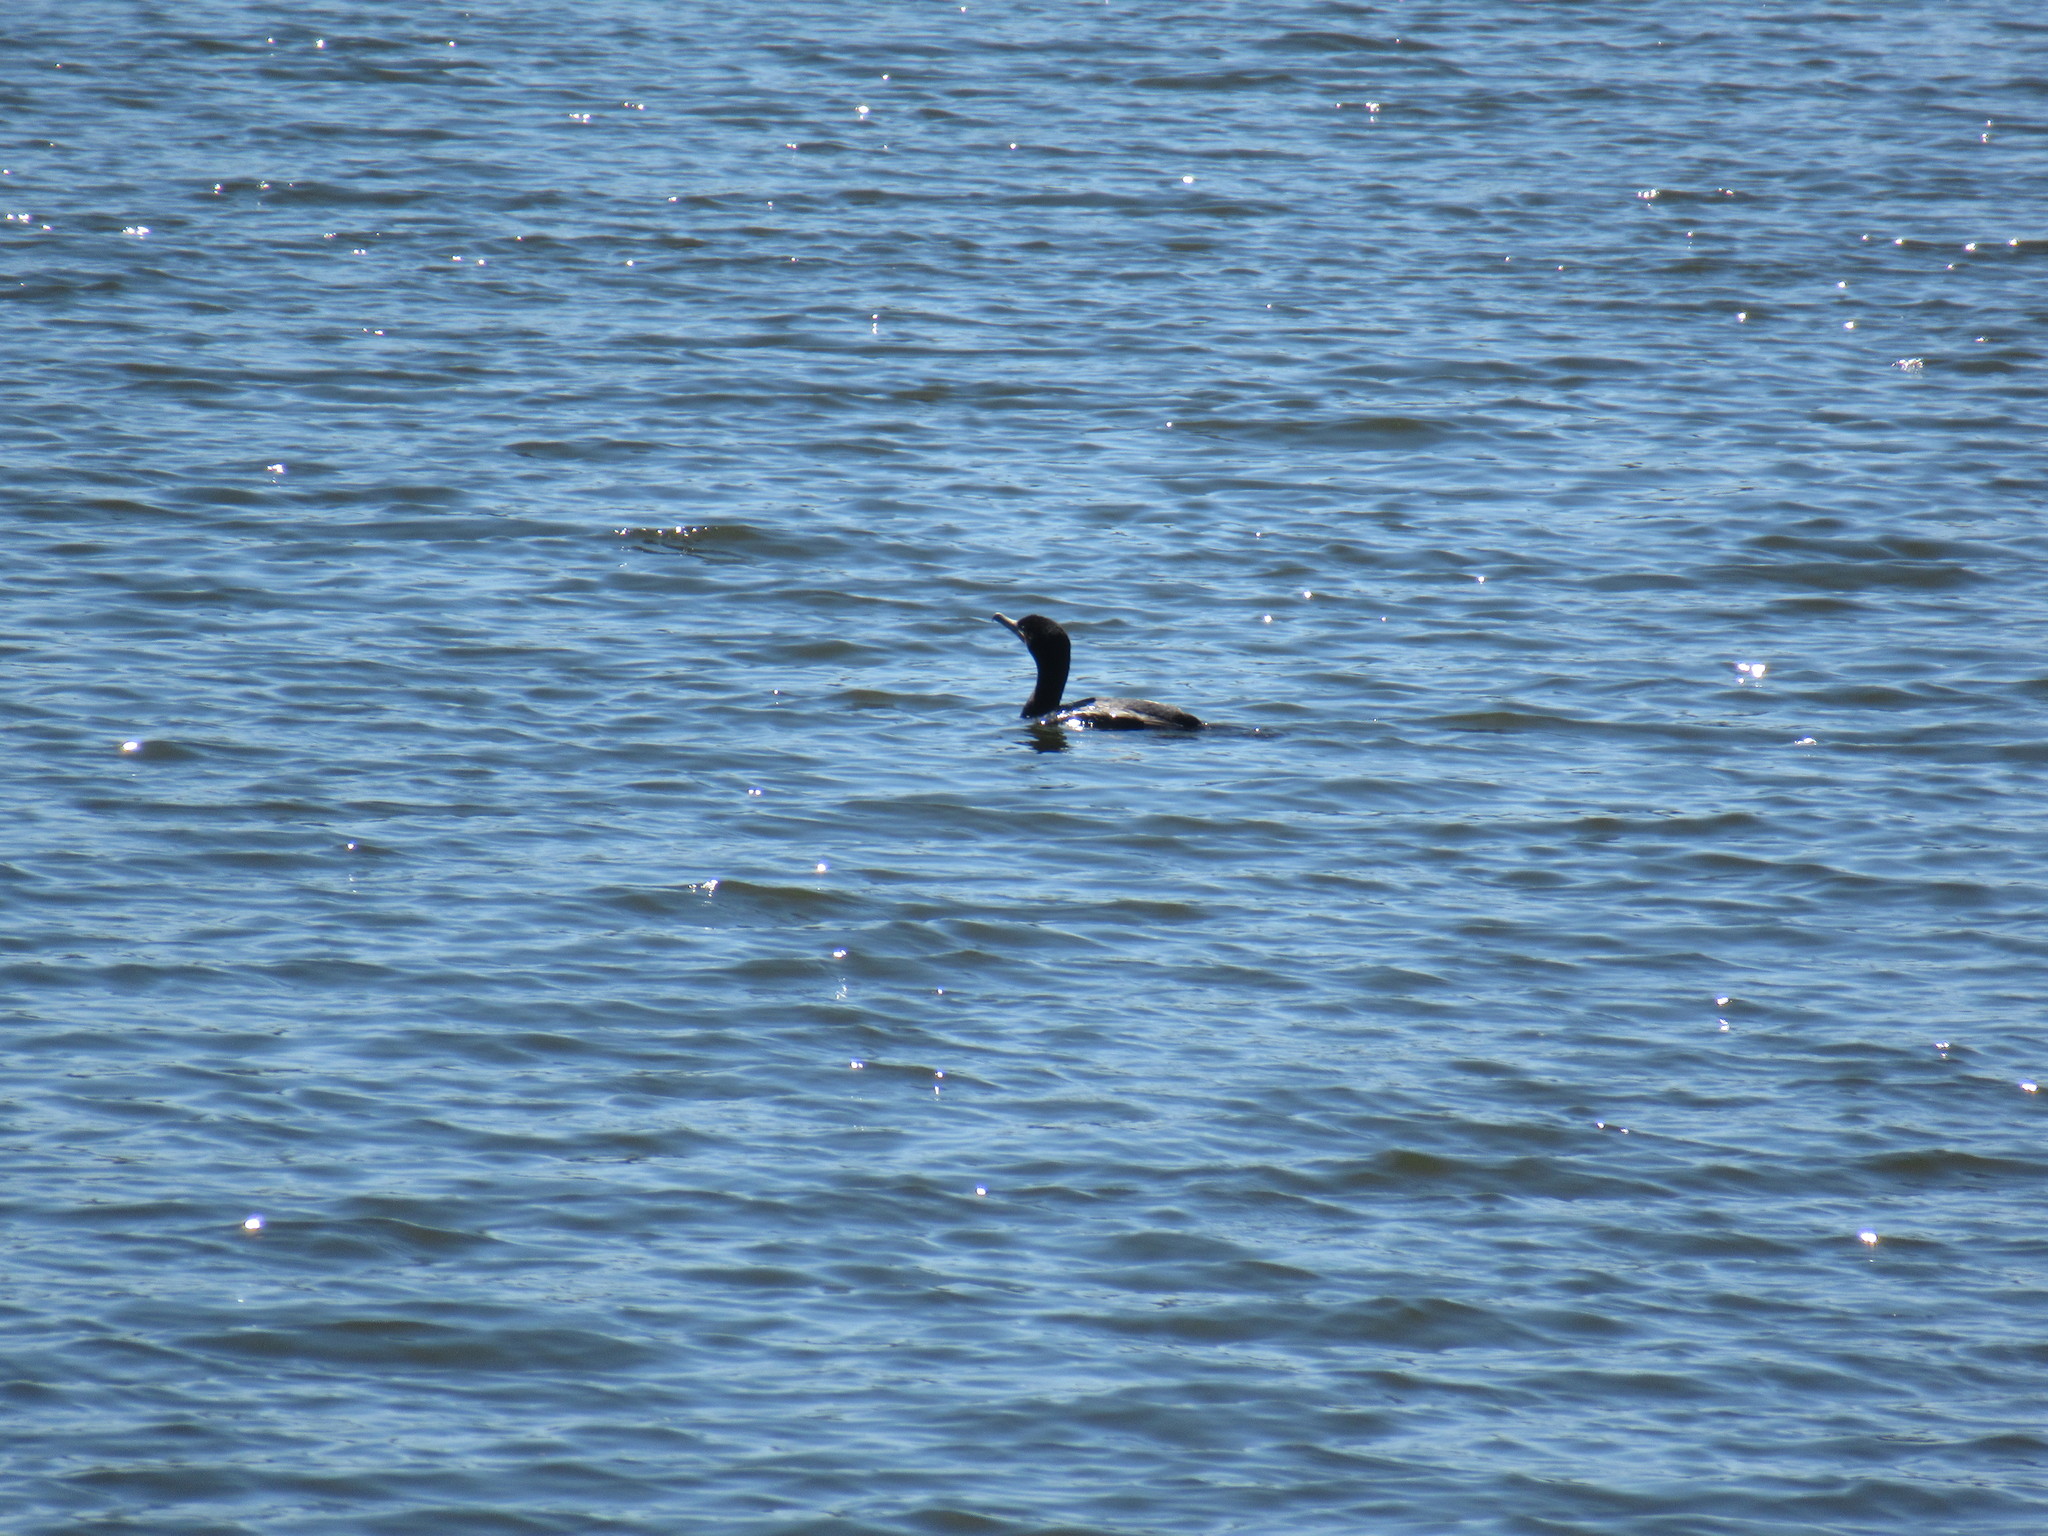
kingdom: Animalia
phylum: Chordata
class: Aves
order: Suliformes
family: Phalacrocoracidae
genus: Phalacrocorax
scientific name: Phalacrocorax auritus
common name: Double-crested cormorant
